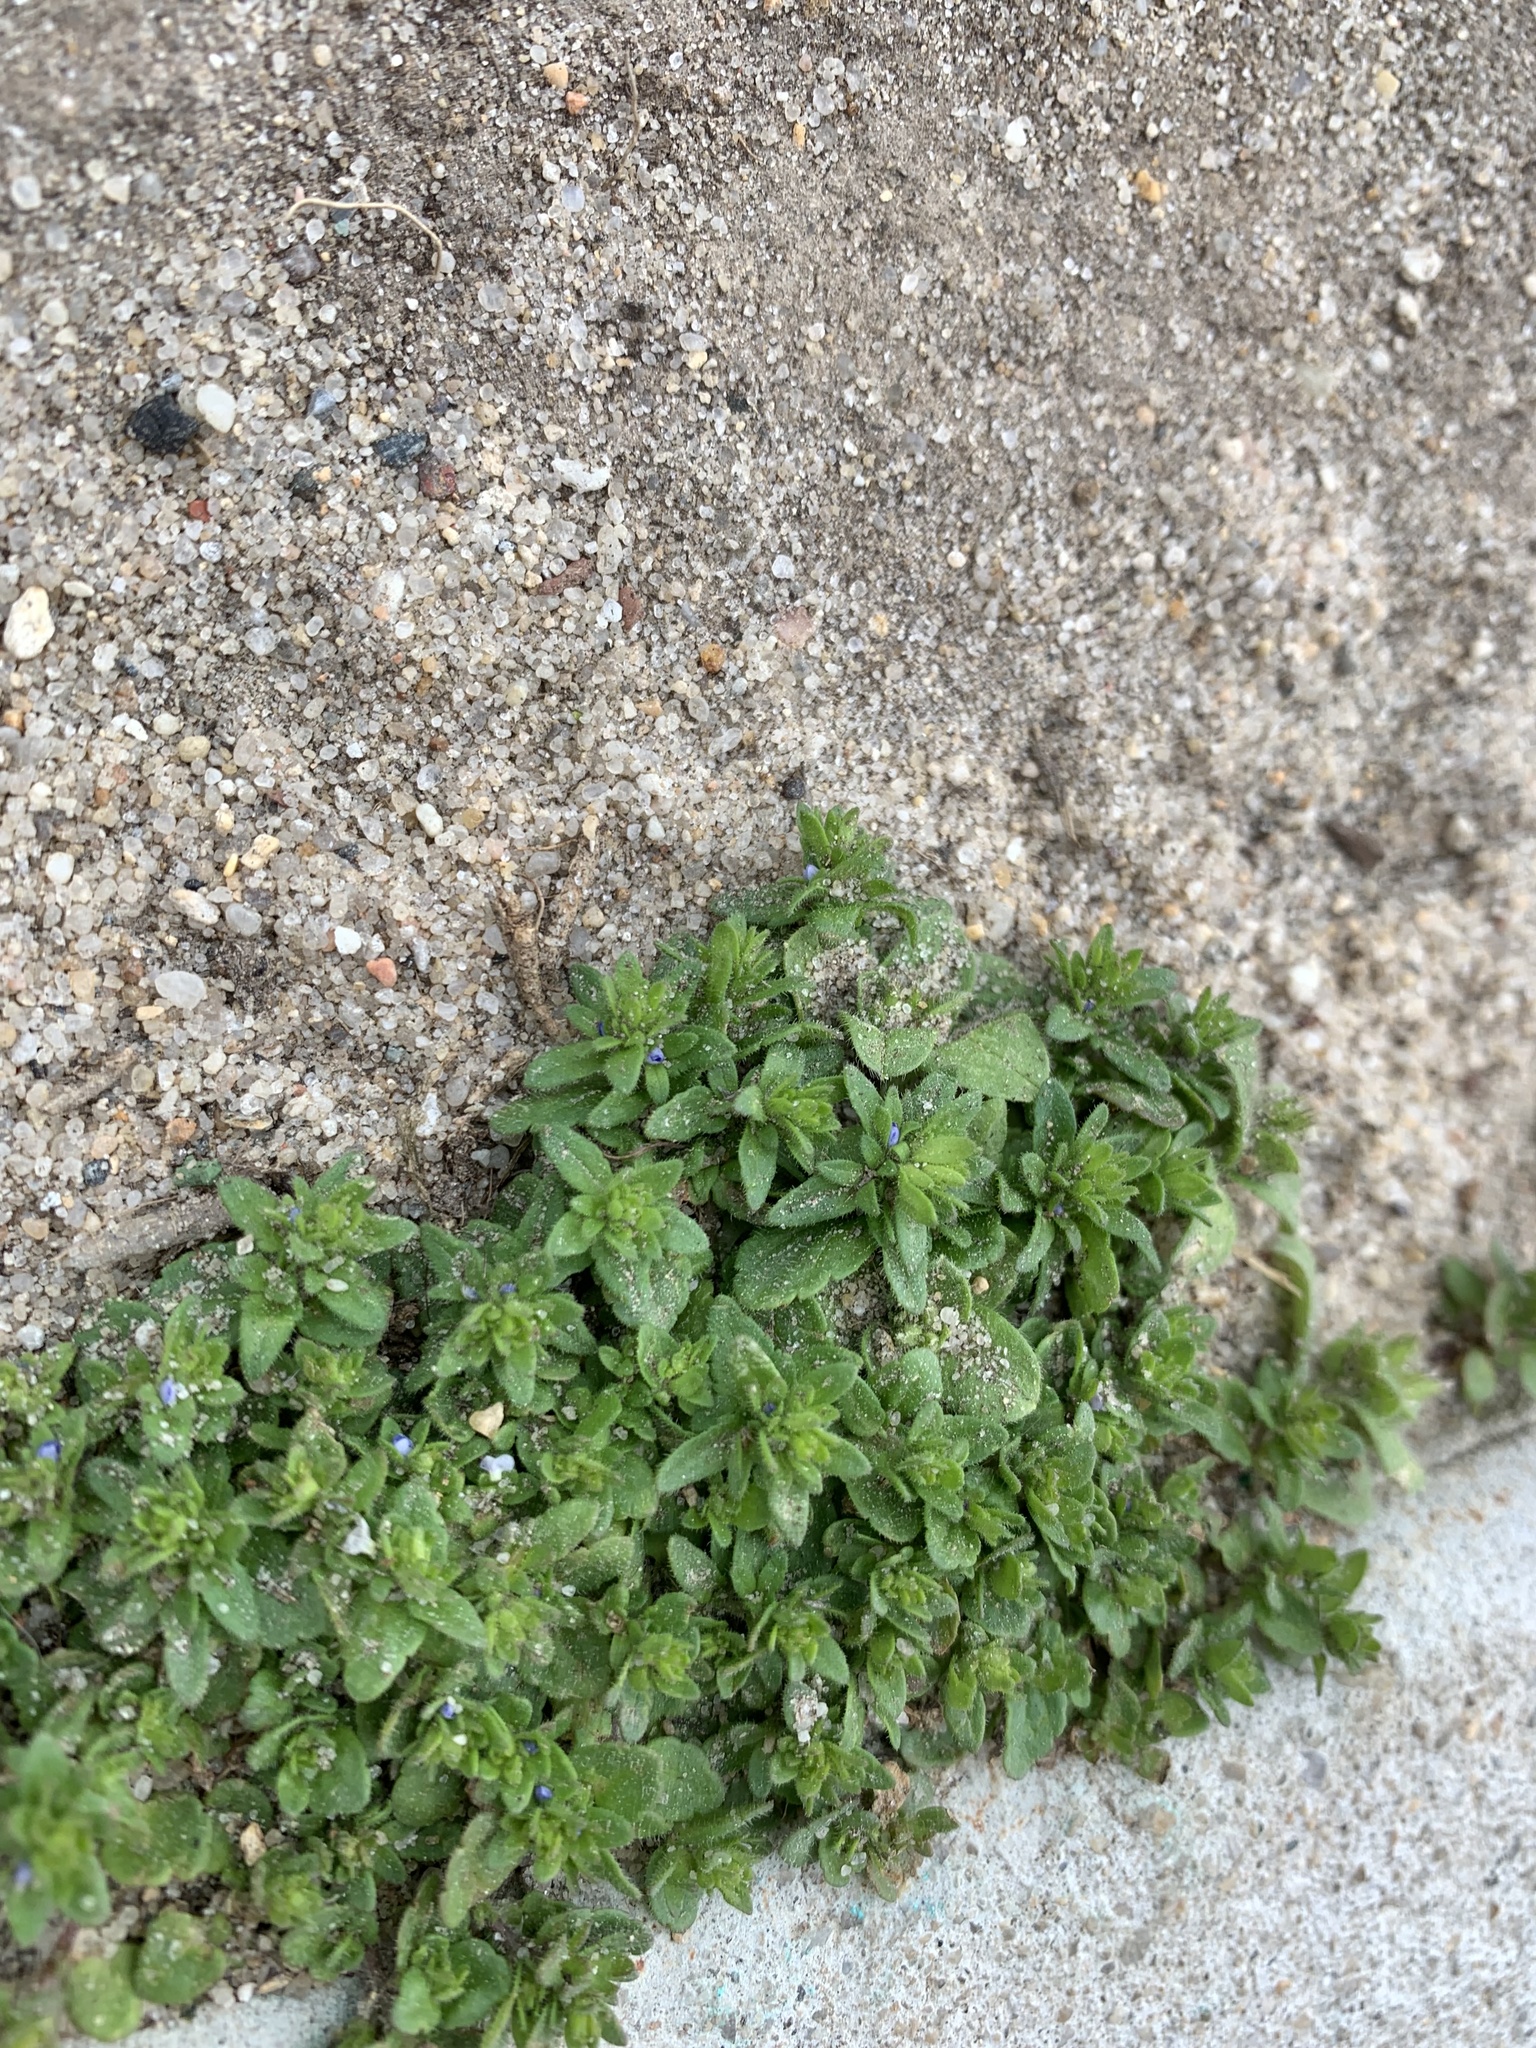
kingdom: Plantae
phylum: Tracheophyta
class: Magnoliopsida
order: Lamiales
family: Plantaginaceae
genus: Veronica
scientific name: Veronica arvensis
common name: Corn speedwell
